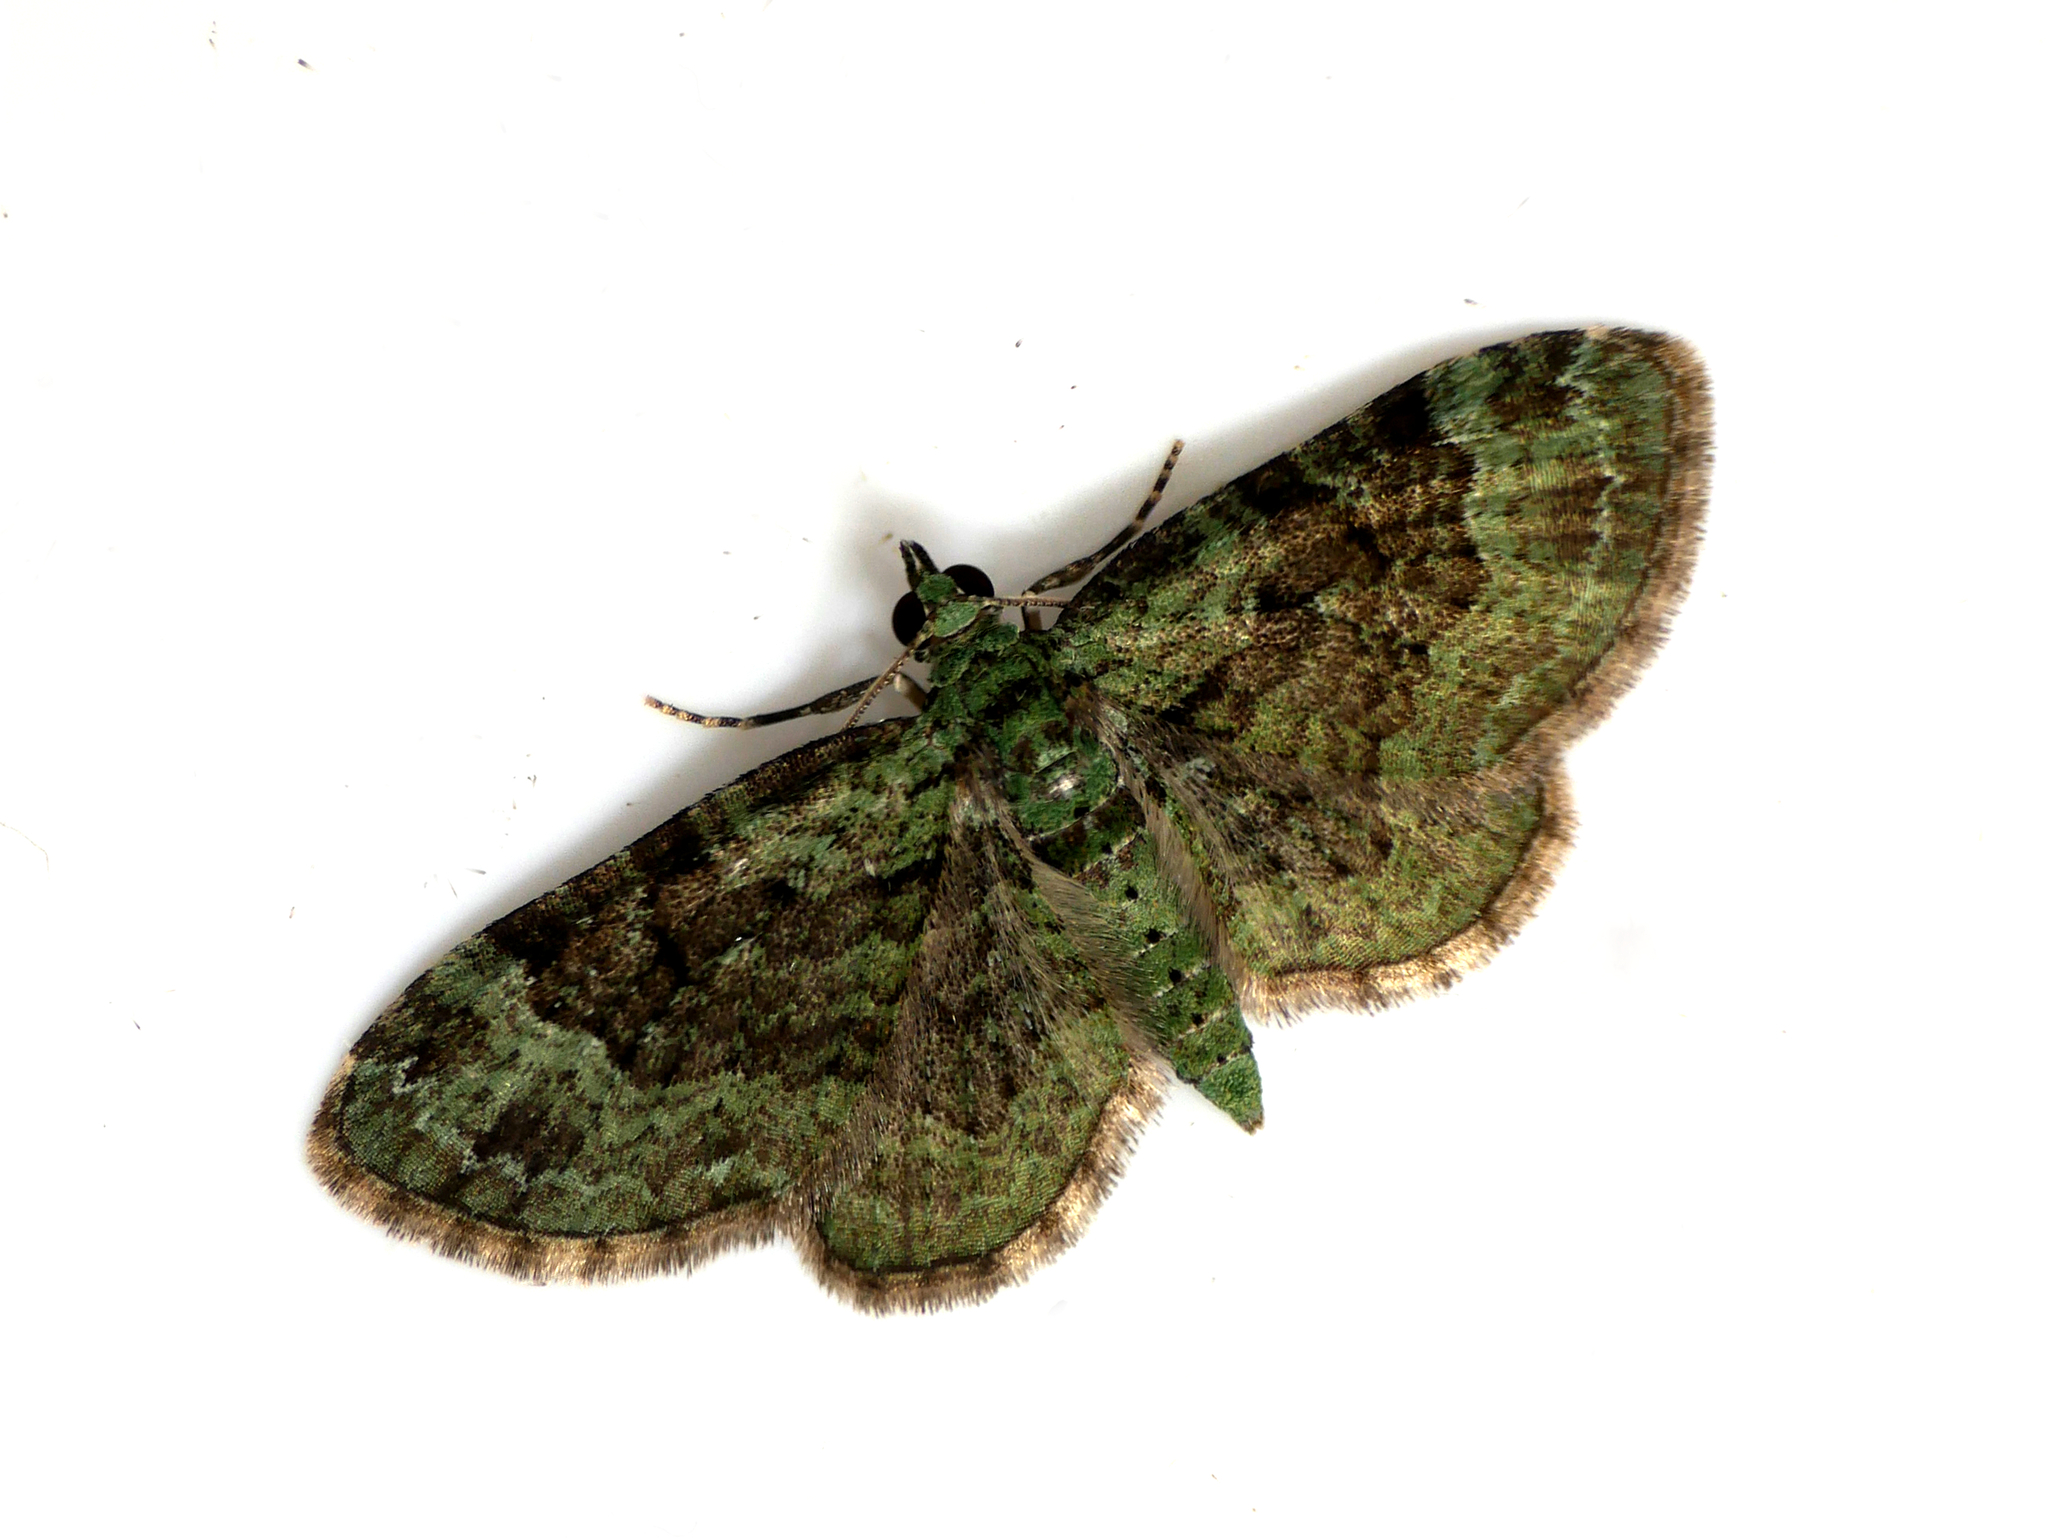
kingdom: Animalia
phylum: Arthropoda
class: Insecta
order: Lepidoptera
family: Geometridae
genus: Pasiphila
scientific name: Pasiphila rectangulata
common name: Green pug
